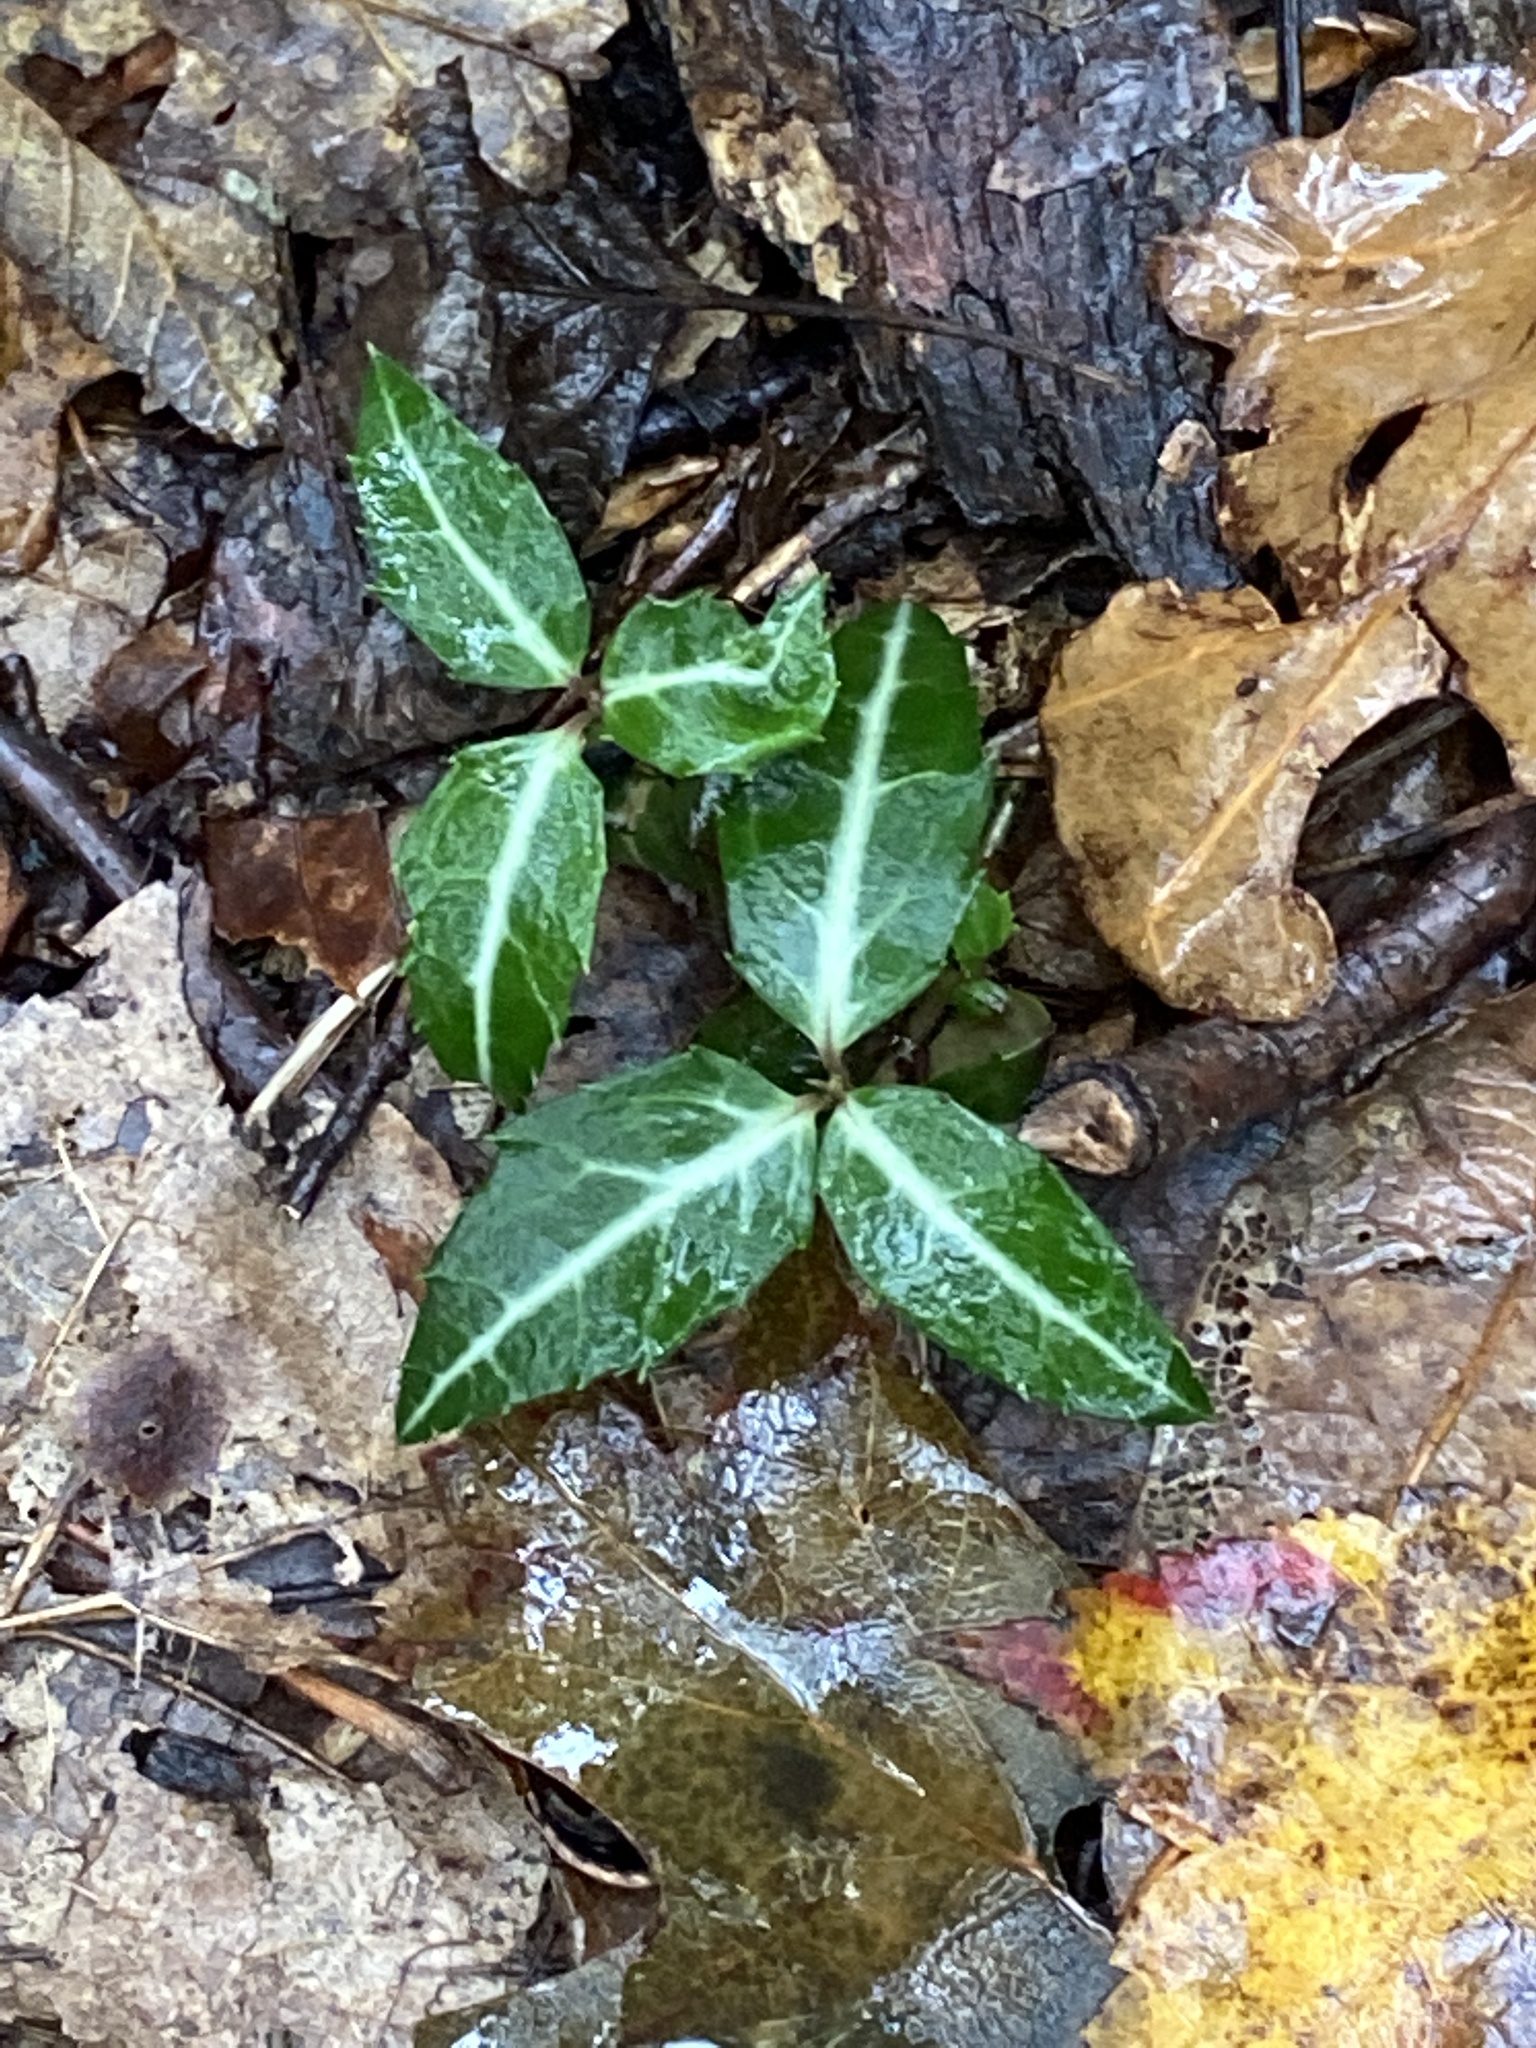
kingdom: Plantae
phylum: Tracheophyta
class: Magnoliopsida
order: Ericales
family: Ericaceae
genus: Chimaphila
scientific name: Chimaphila maculata
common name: Spotted pipsissewa
